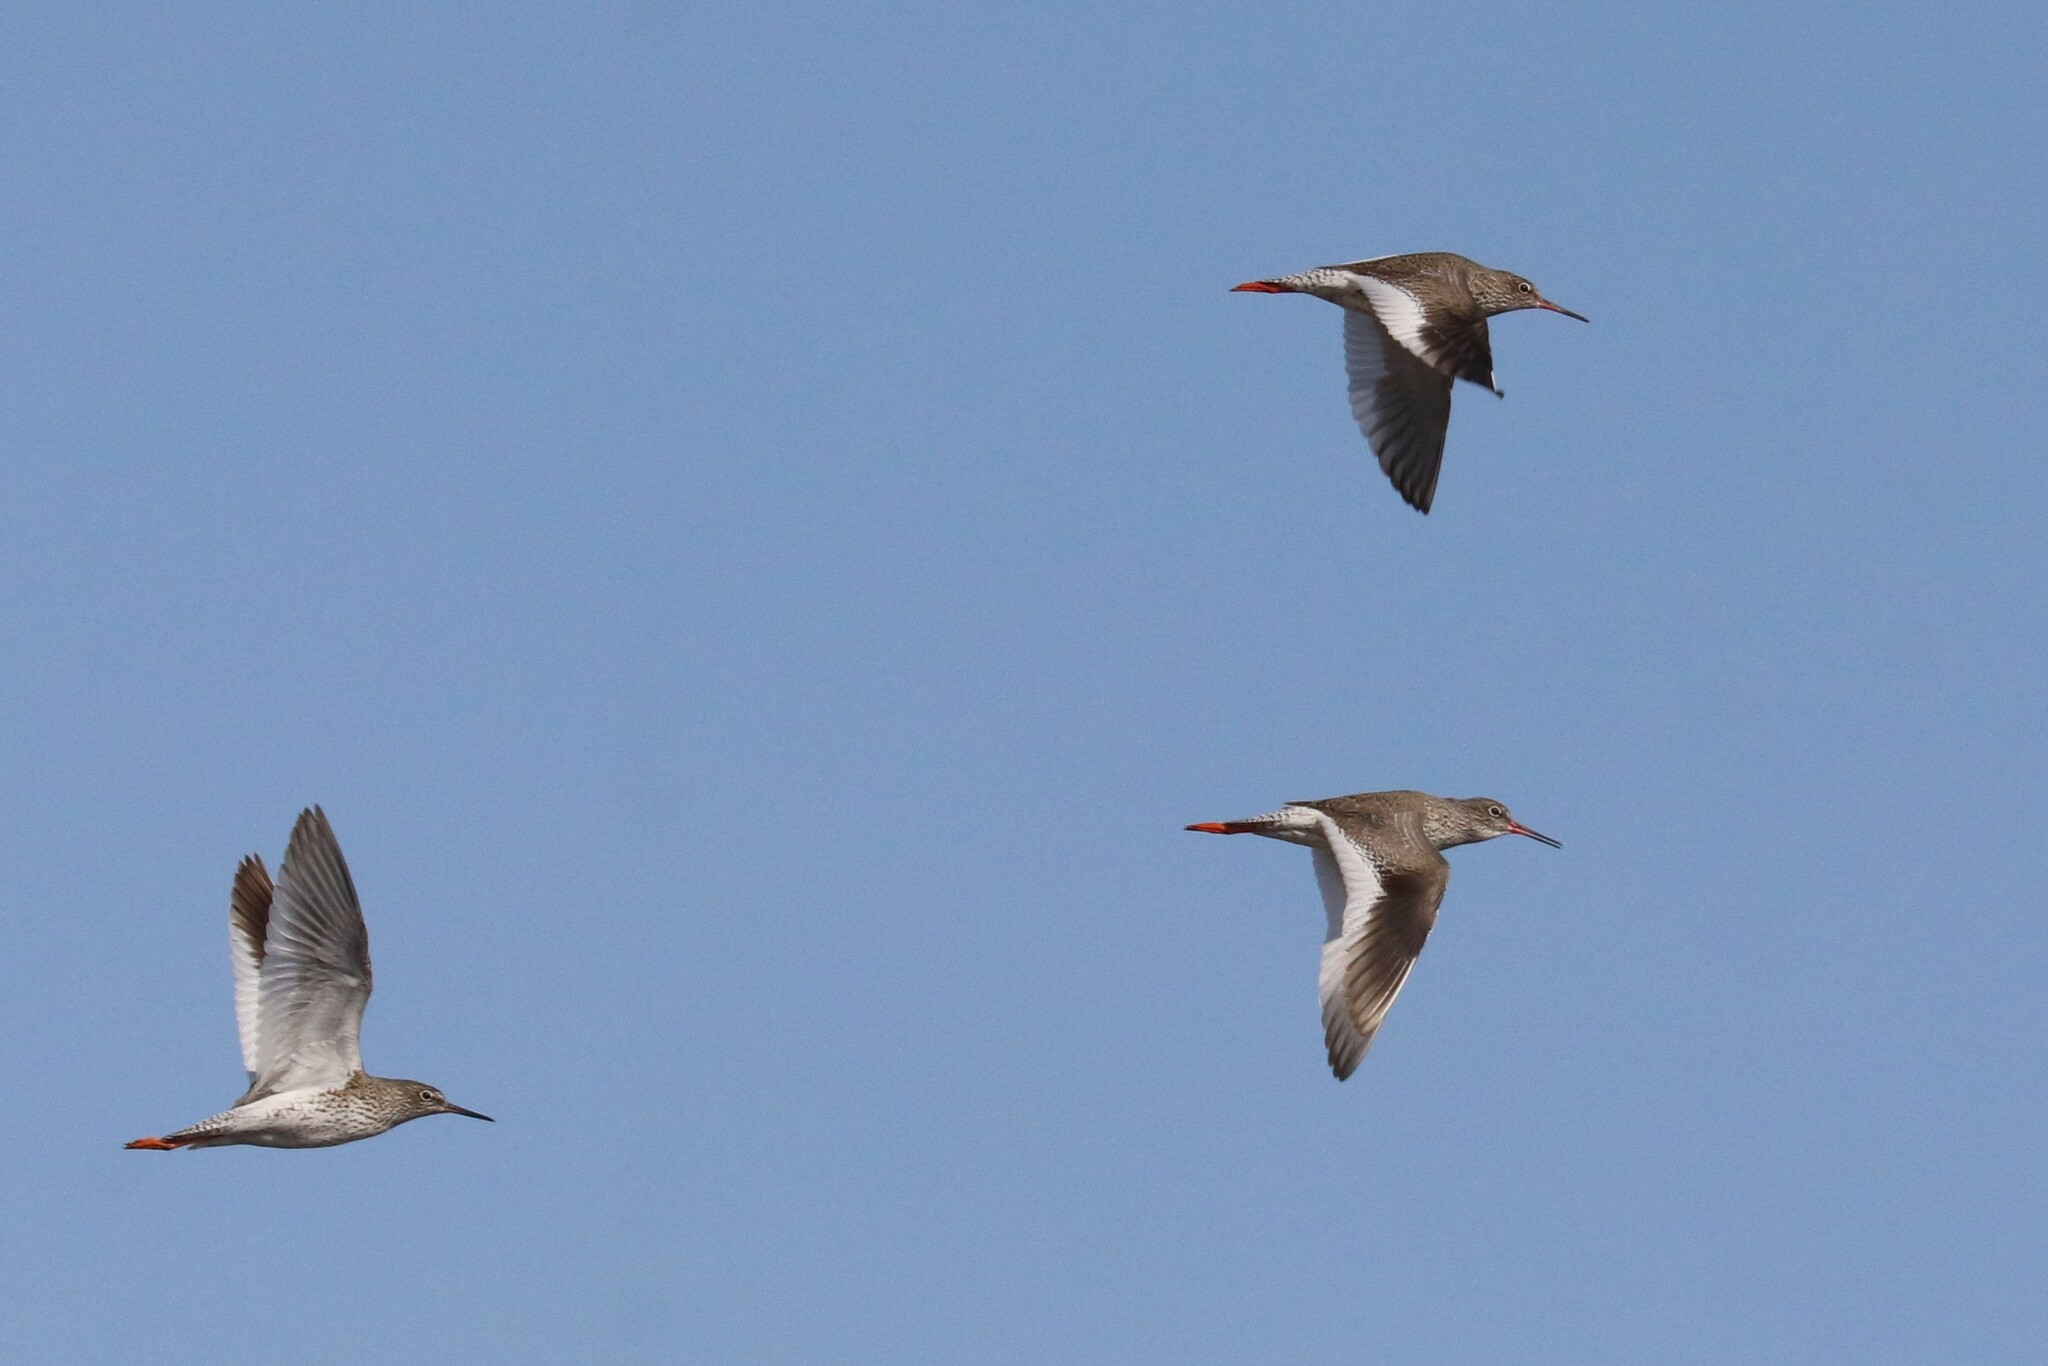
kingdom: Animalia
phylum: Chordata
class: Aves
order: Charadriiformes
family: Scolopacidae
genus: Tringa
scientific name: Tringa totanus
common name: Common redshank
